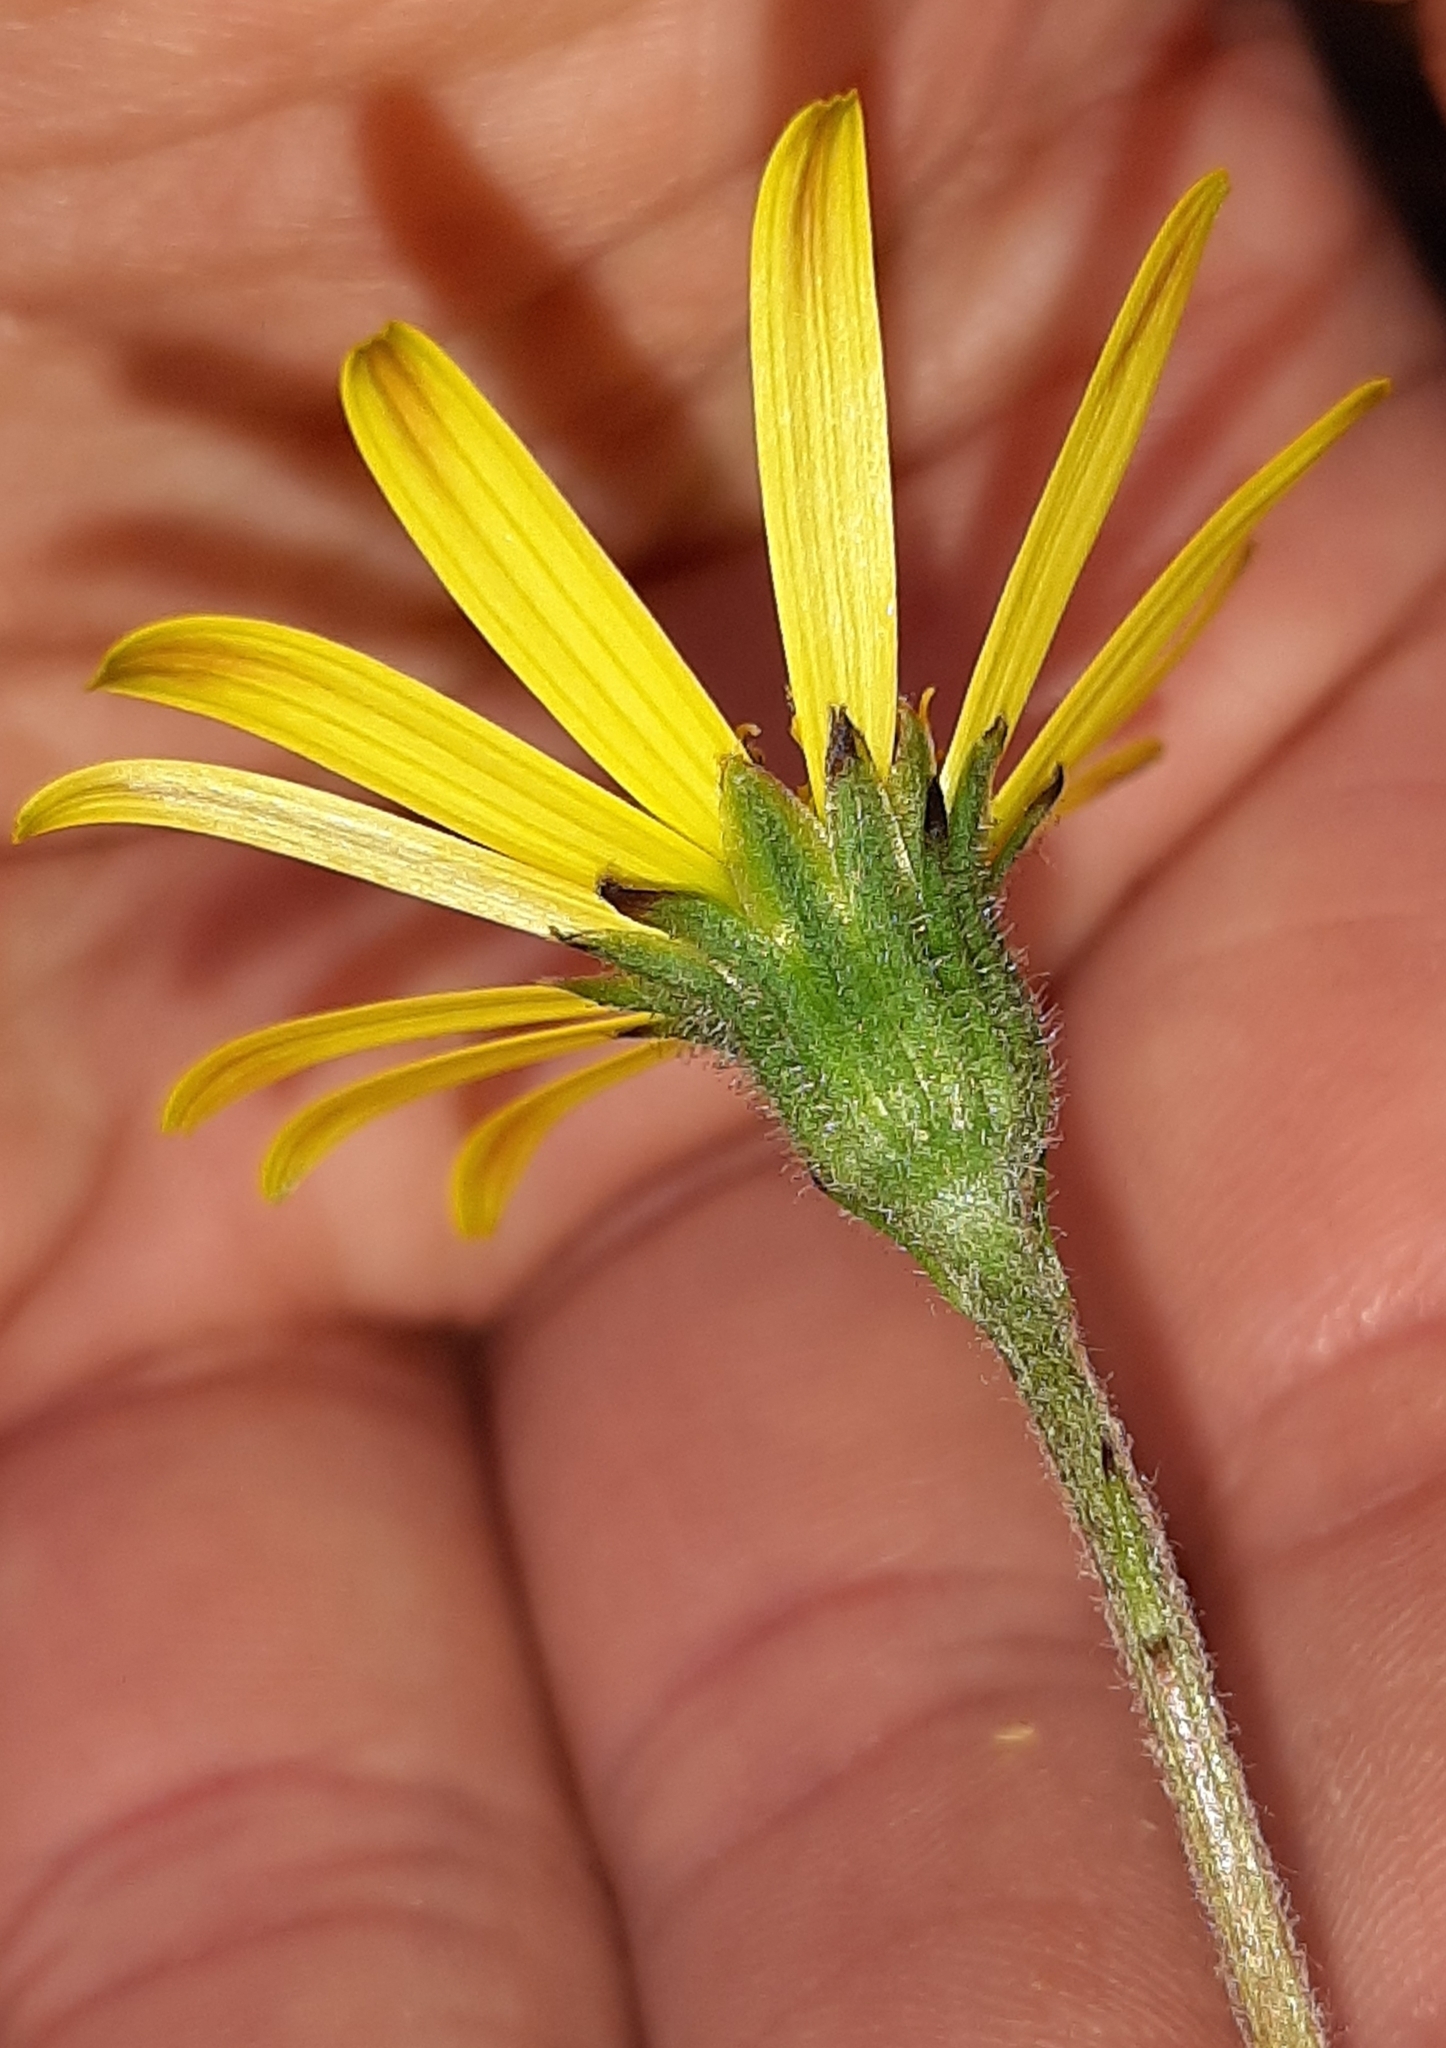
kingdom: Plantae
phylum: Tracheophyta
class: Magnoliopsida
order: Asterales
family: Asteraceae
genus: Brachyglottis
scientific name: Brachyglottis bellidioides
